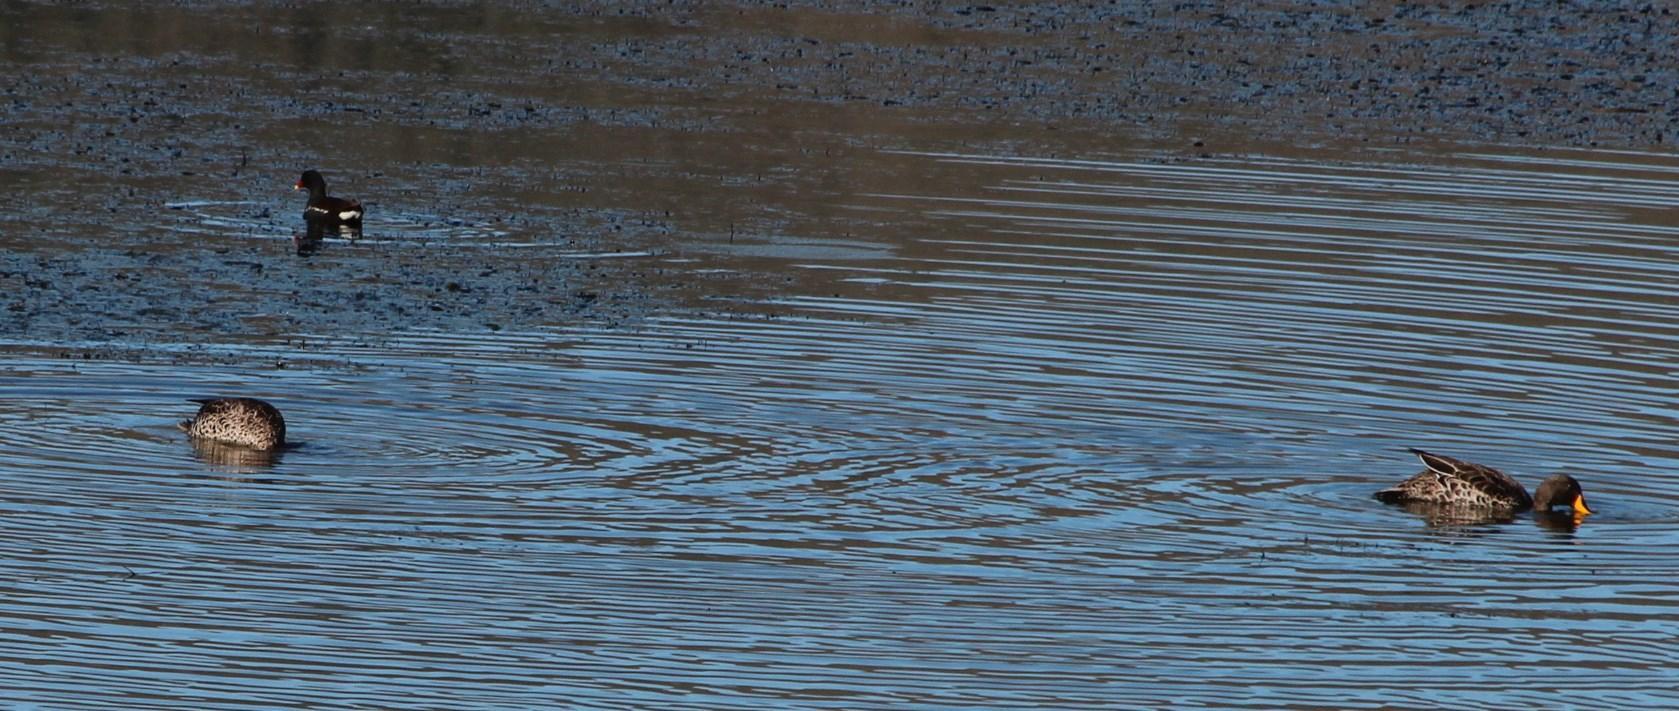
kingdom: Animalia
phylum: Chordata
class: Aves
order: Anseriformes
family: Anatidae
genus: Anas
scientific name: Anas undulata
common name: Yellow-billed duck
